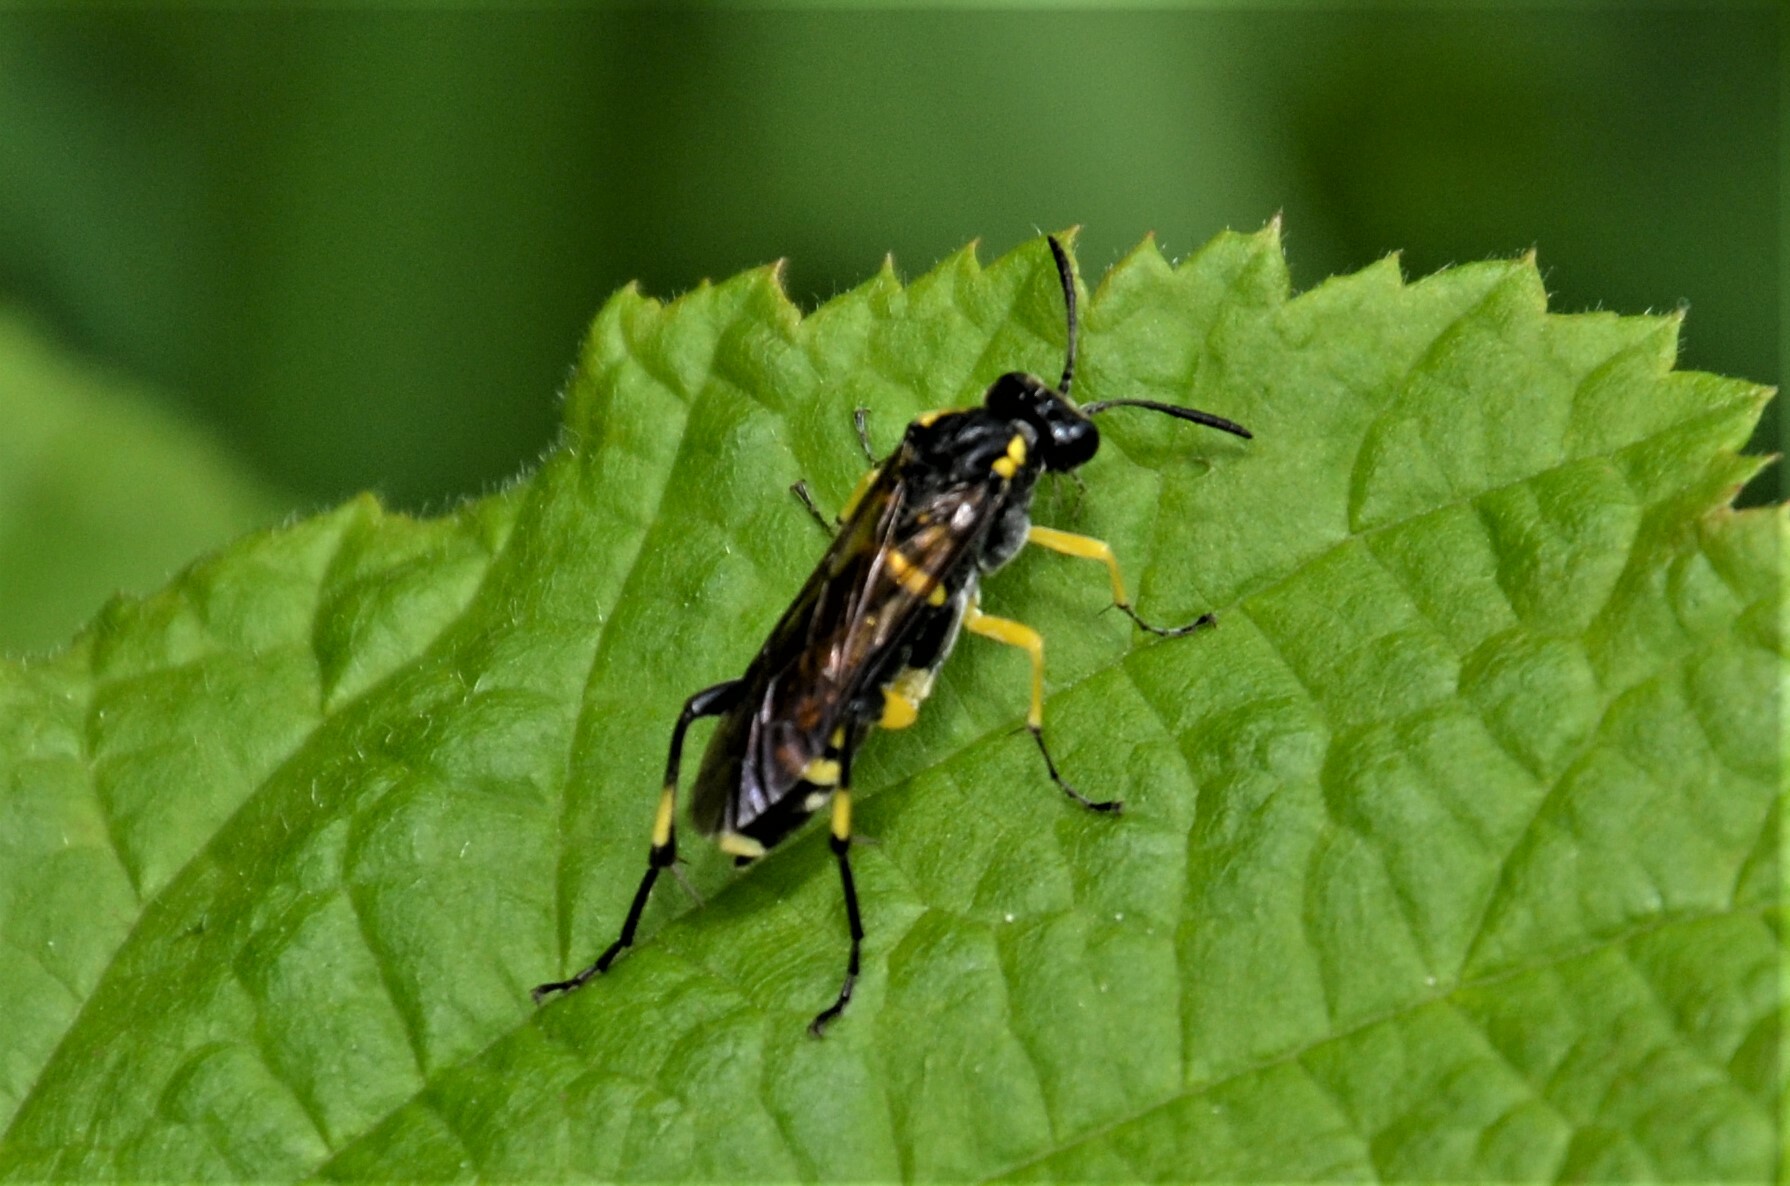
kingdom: Animalia
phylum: Arthropoda
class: Insecta
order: Hymenoptera
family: Tenthredinidae
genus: Macrophya
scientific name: Macrophya montana
